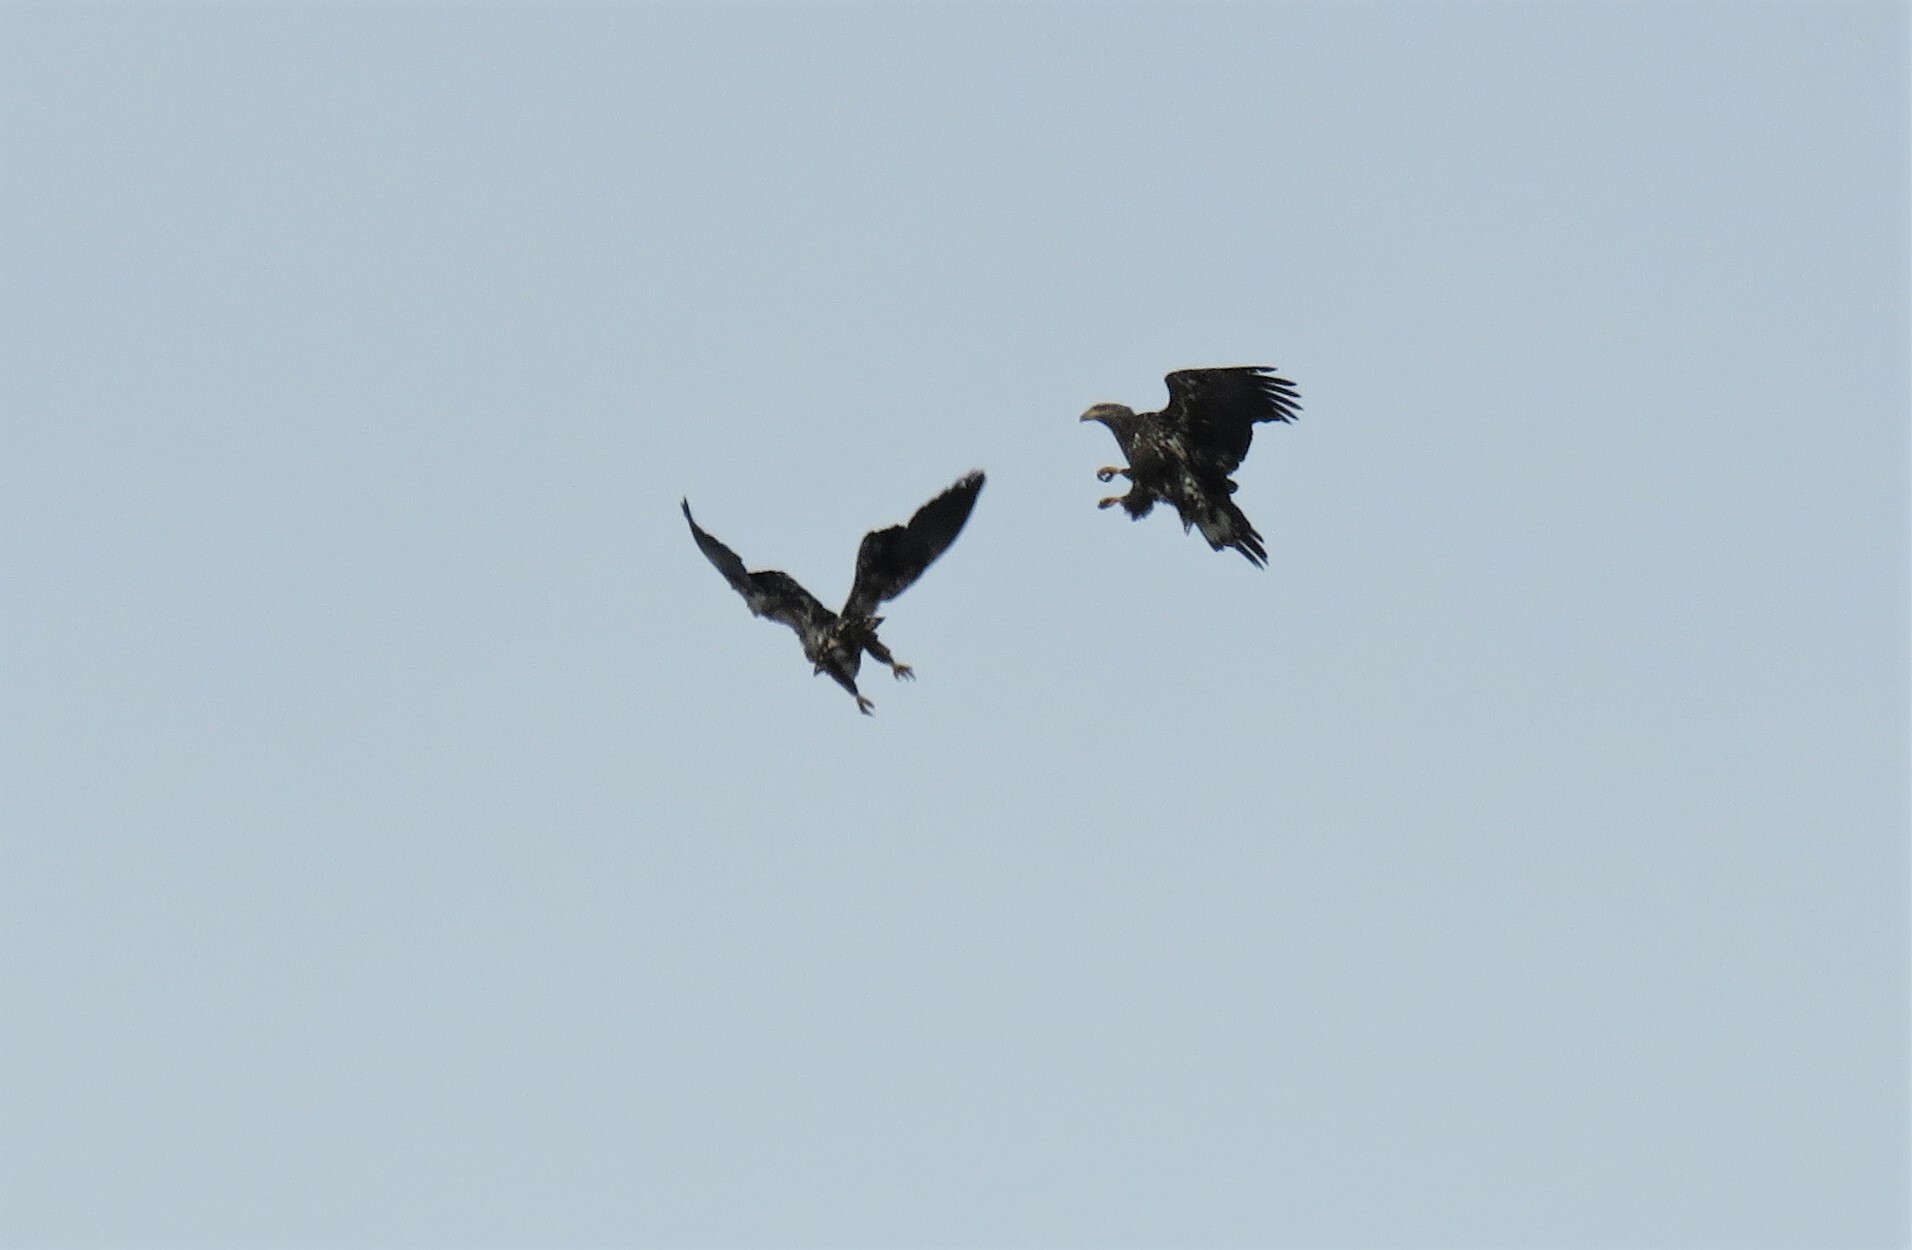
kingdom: Animalia
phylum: Chordata
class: Aves
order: Accipitriformes
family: Accipitridae
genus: Haliaeetus
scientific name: Haliaeetus leucocephalus
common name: Bald eagle
